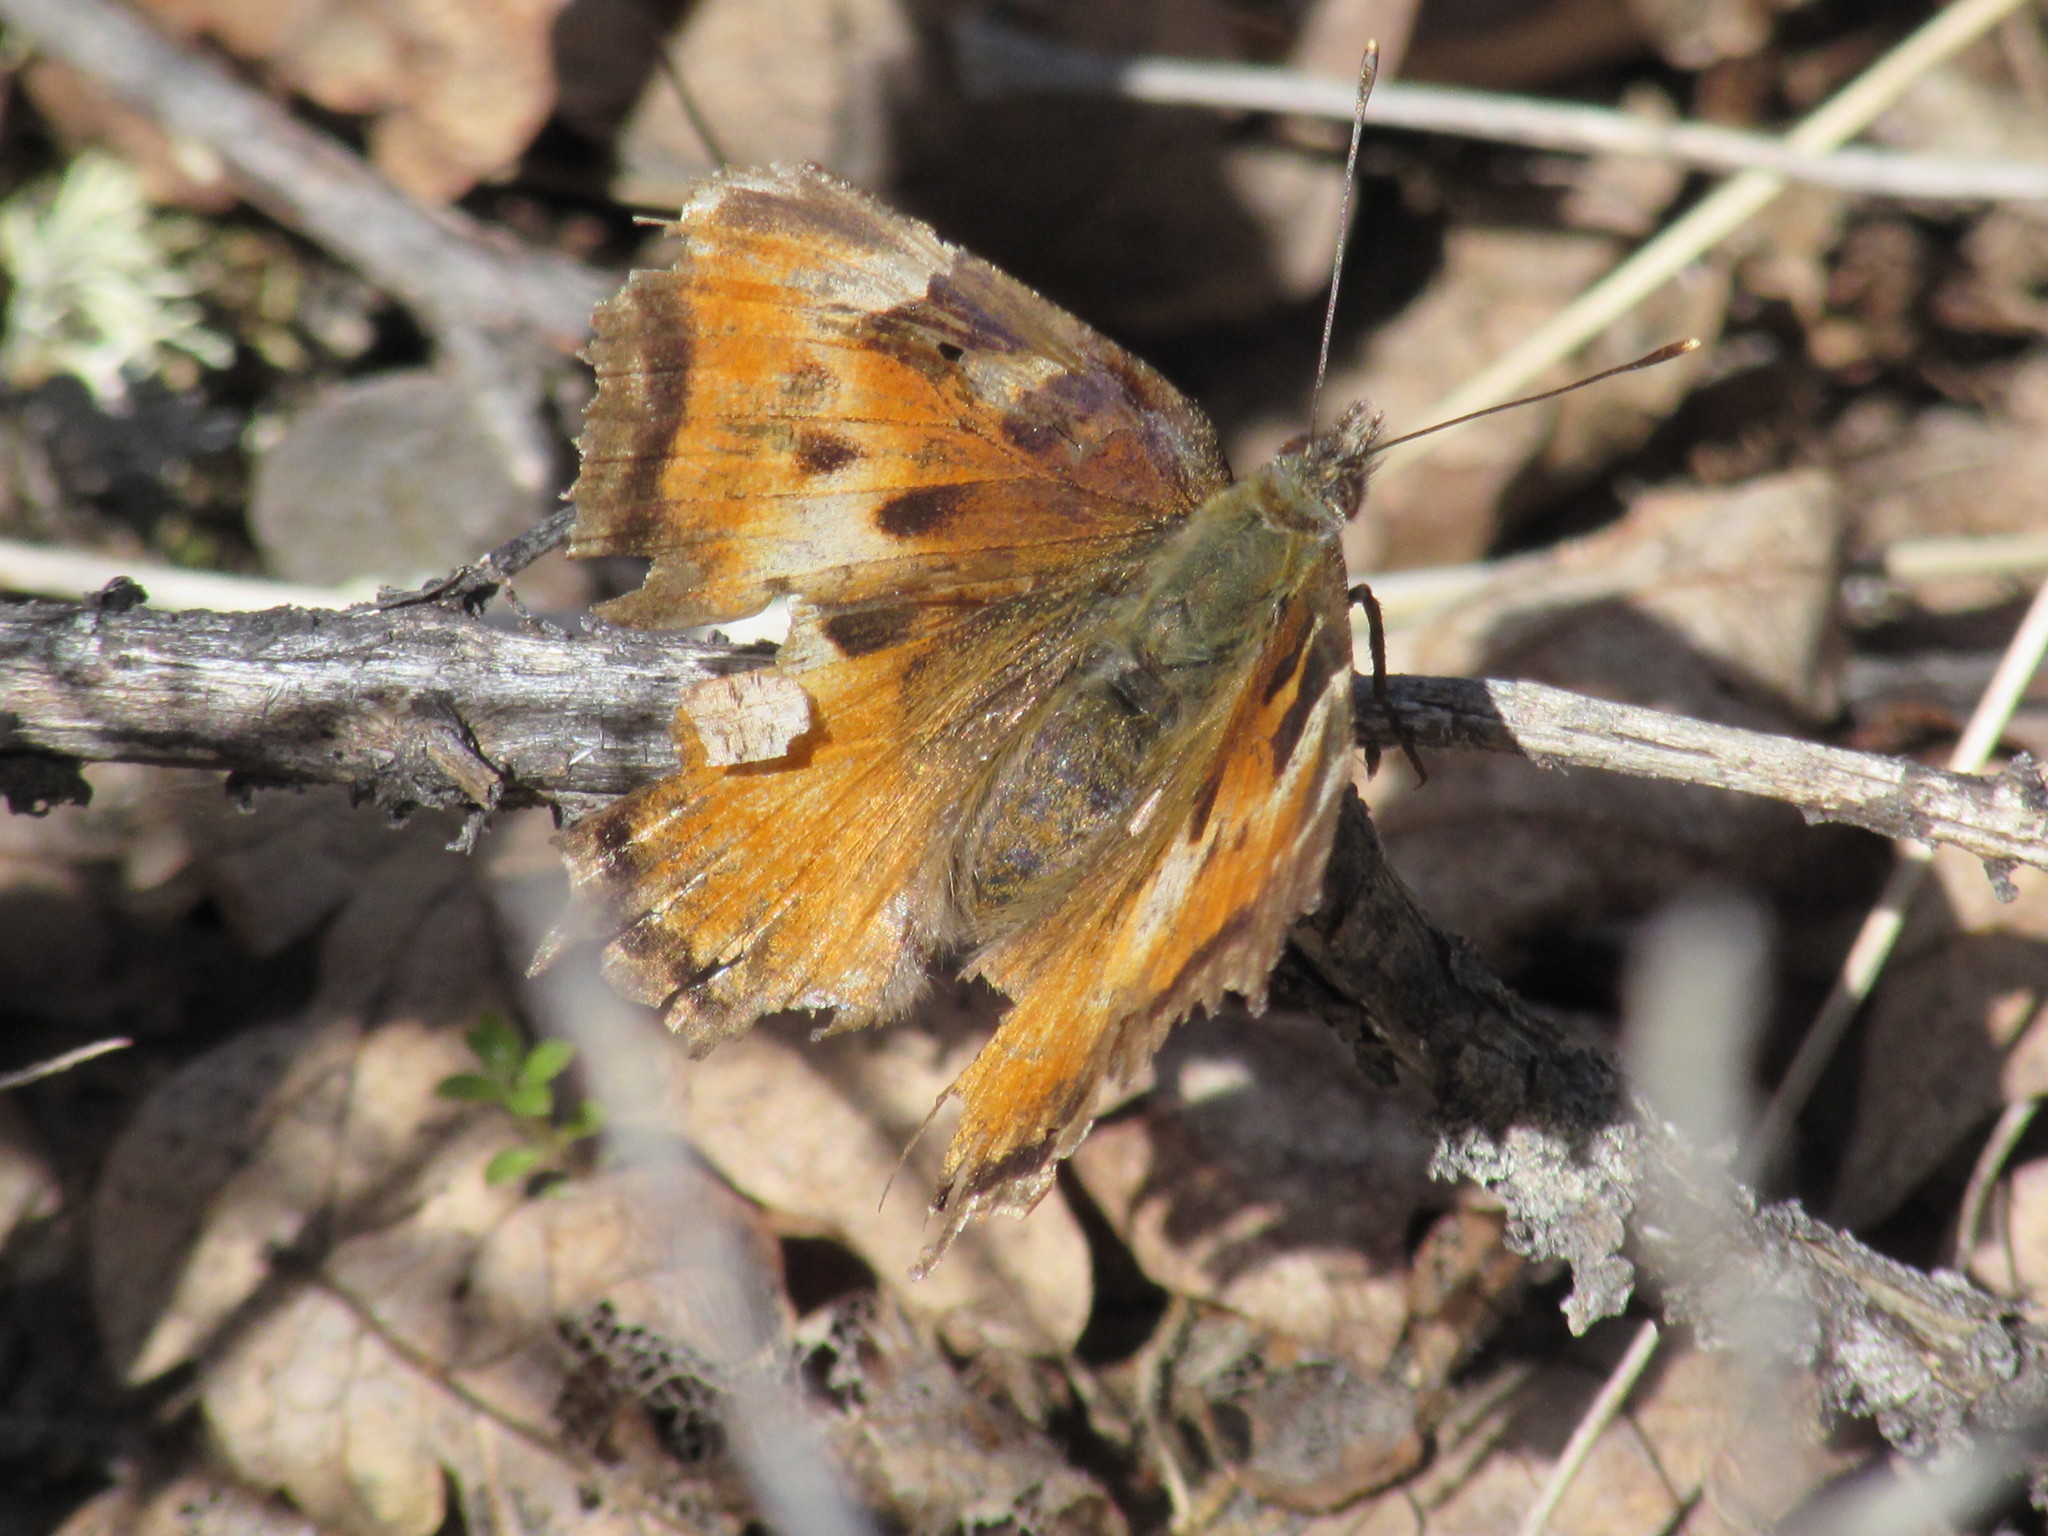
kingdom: Animalia
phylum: Arthropoda
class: Insecta
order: Lepidoptera
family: Nymphalidae
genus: Nymphalis
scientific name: Nymphalis californica
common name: California tortoiseshell
